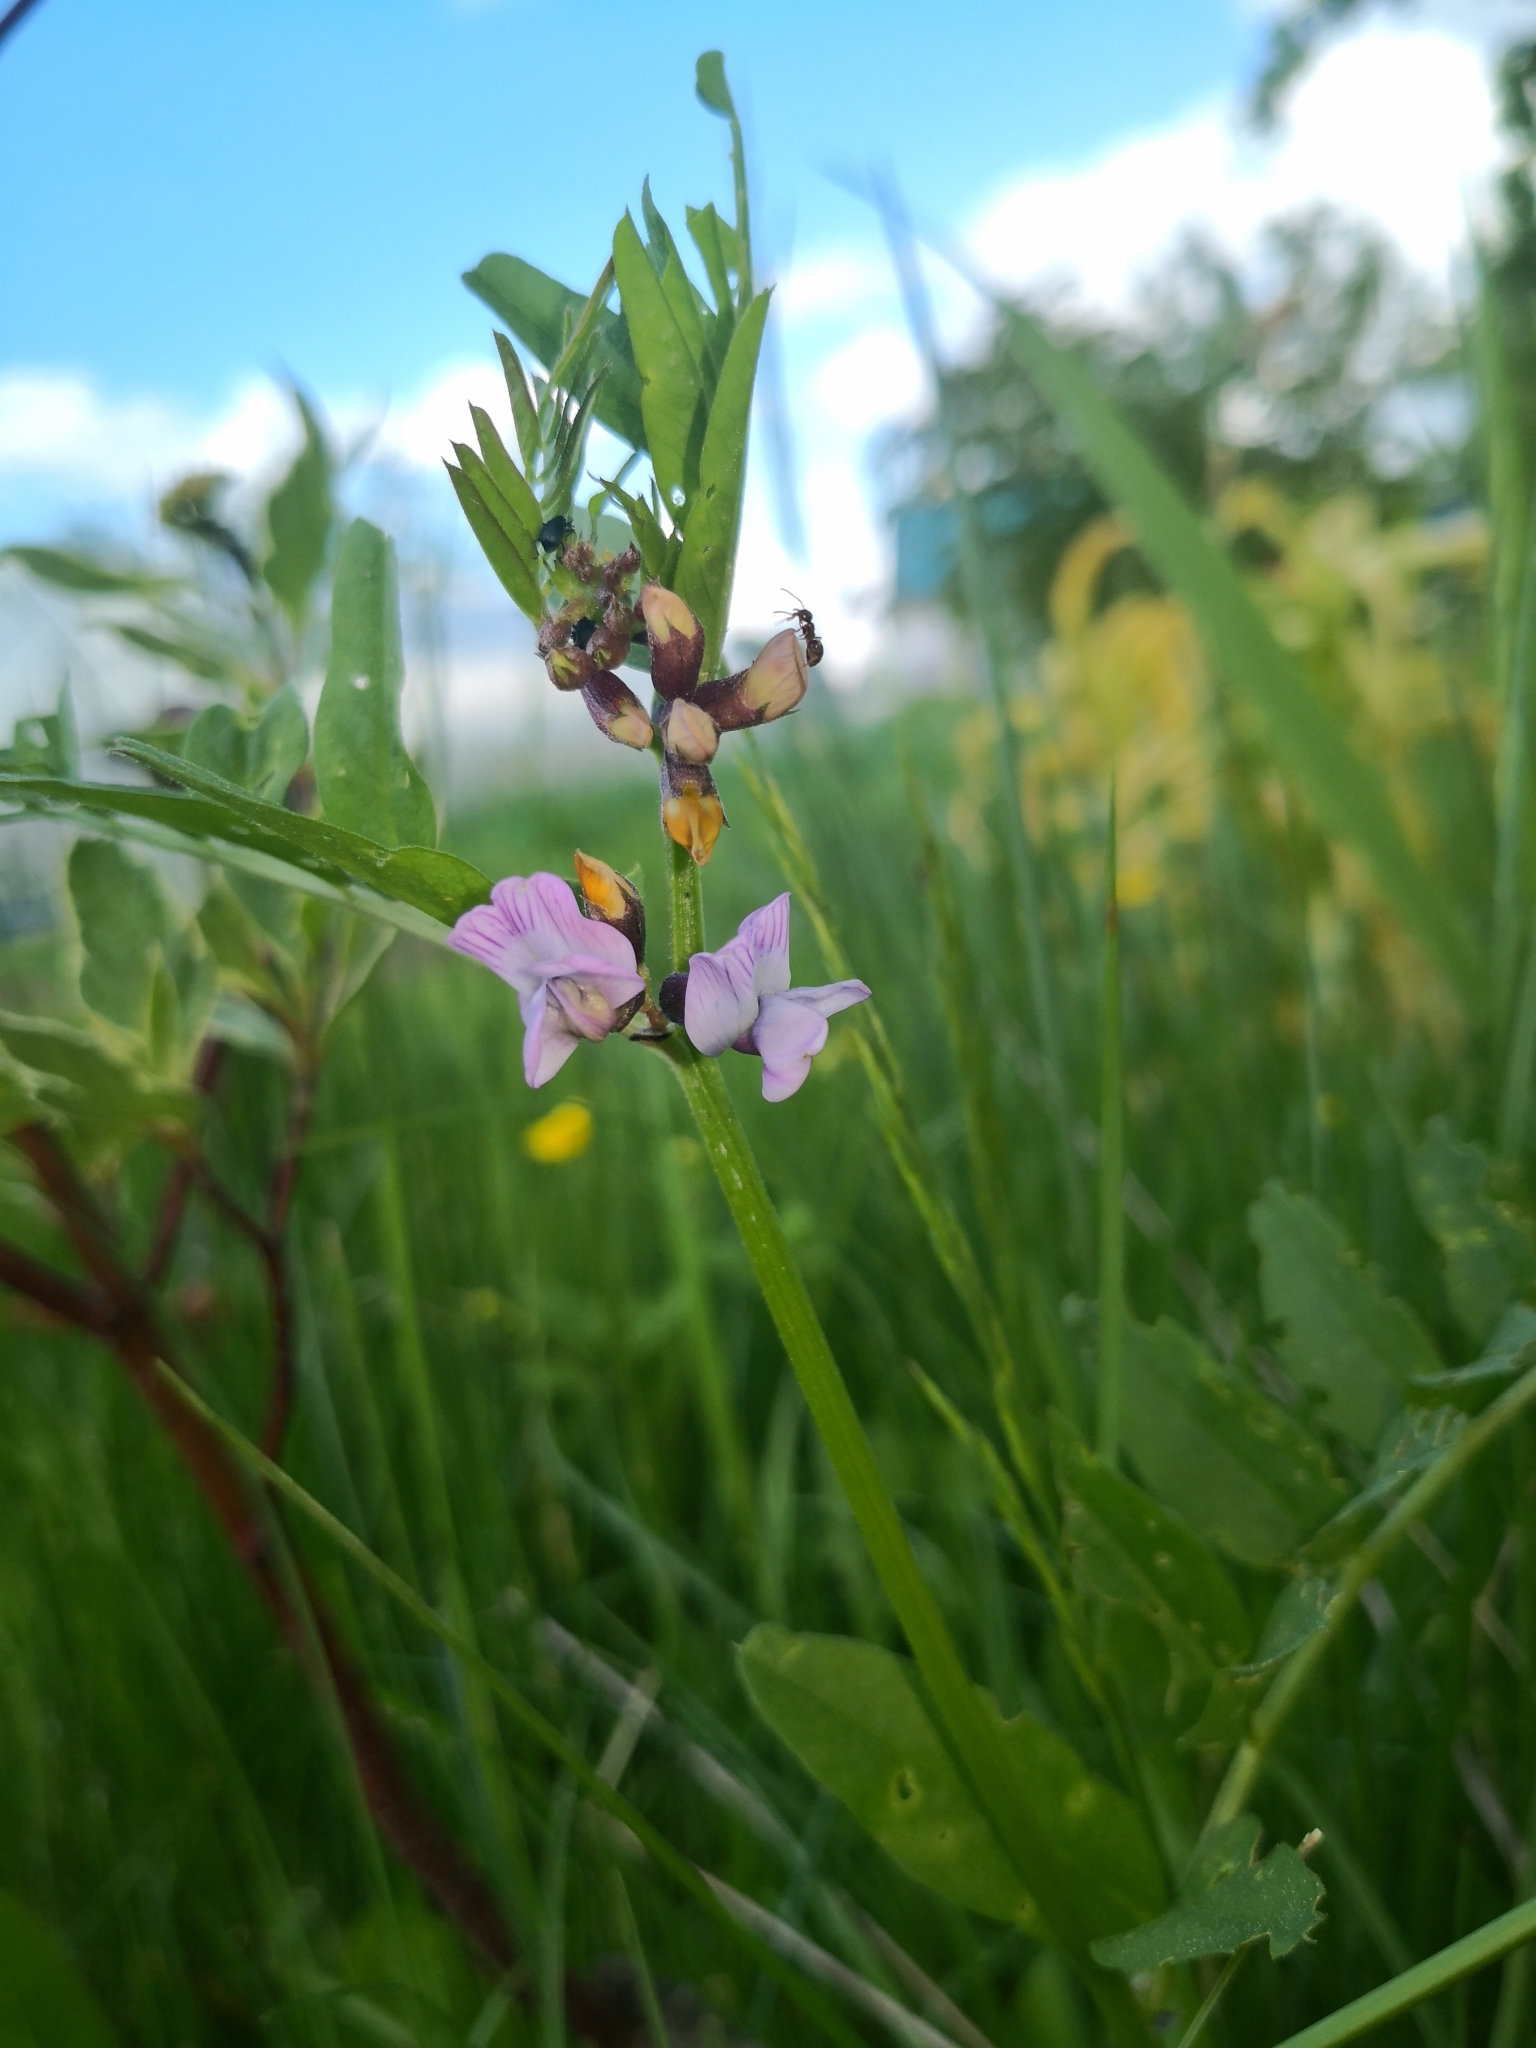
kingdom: Plantae
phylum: Tracheophyta
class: Magnoliopsida
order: Fabales
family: Fabaceae
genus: Vicia
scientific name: Vicia sepium
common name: Bush vetch
